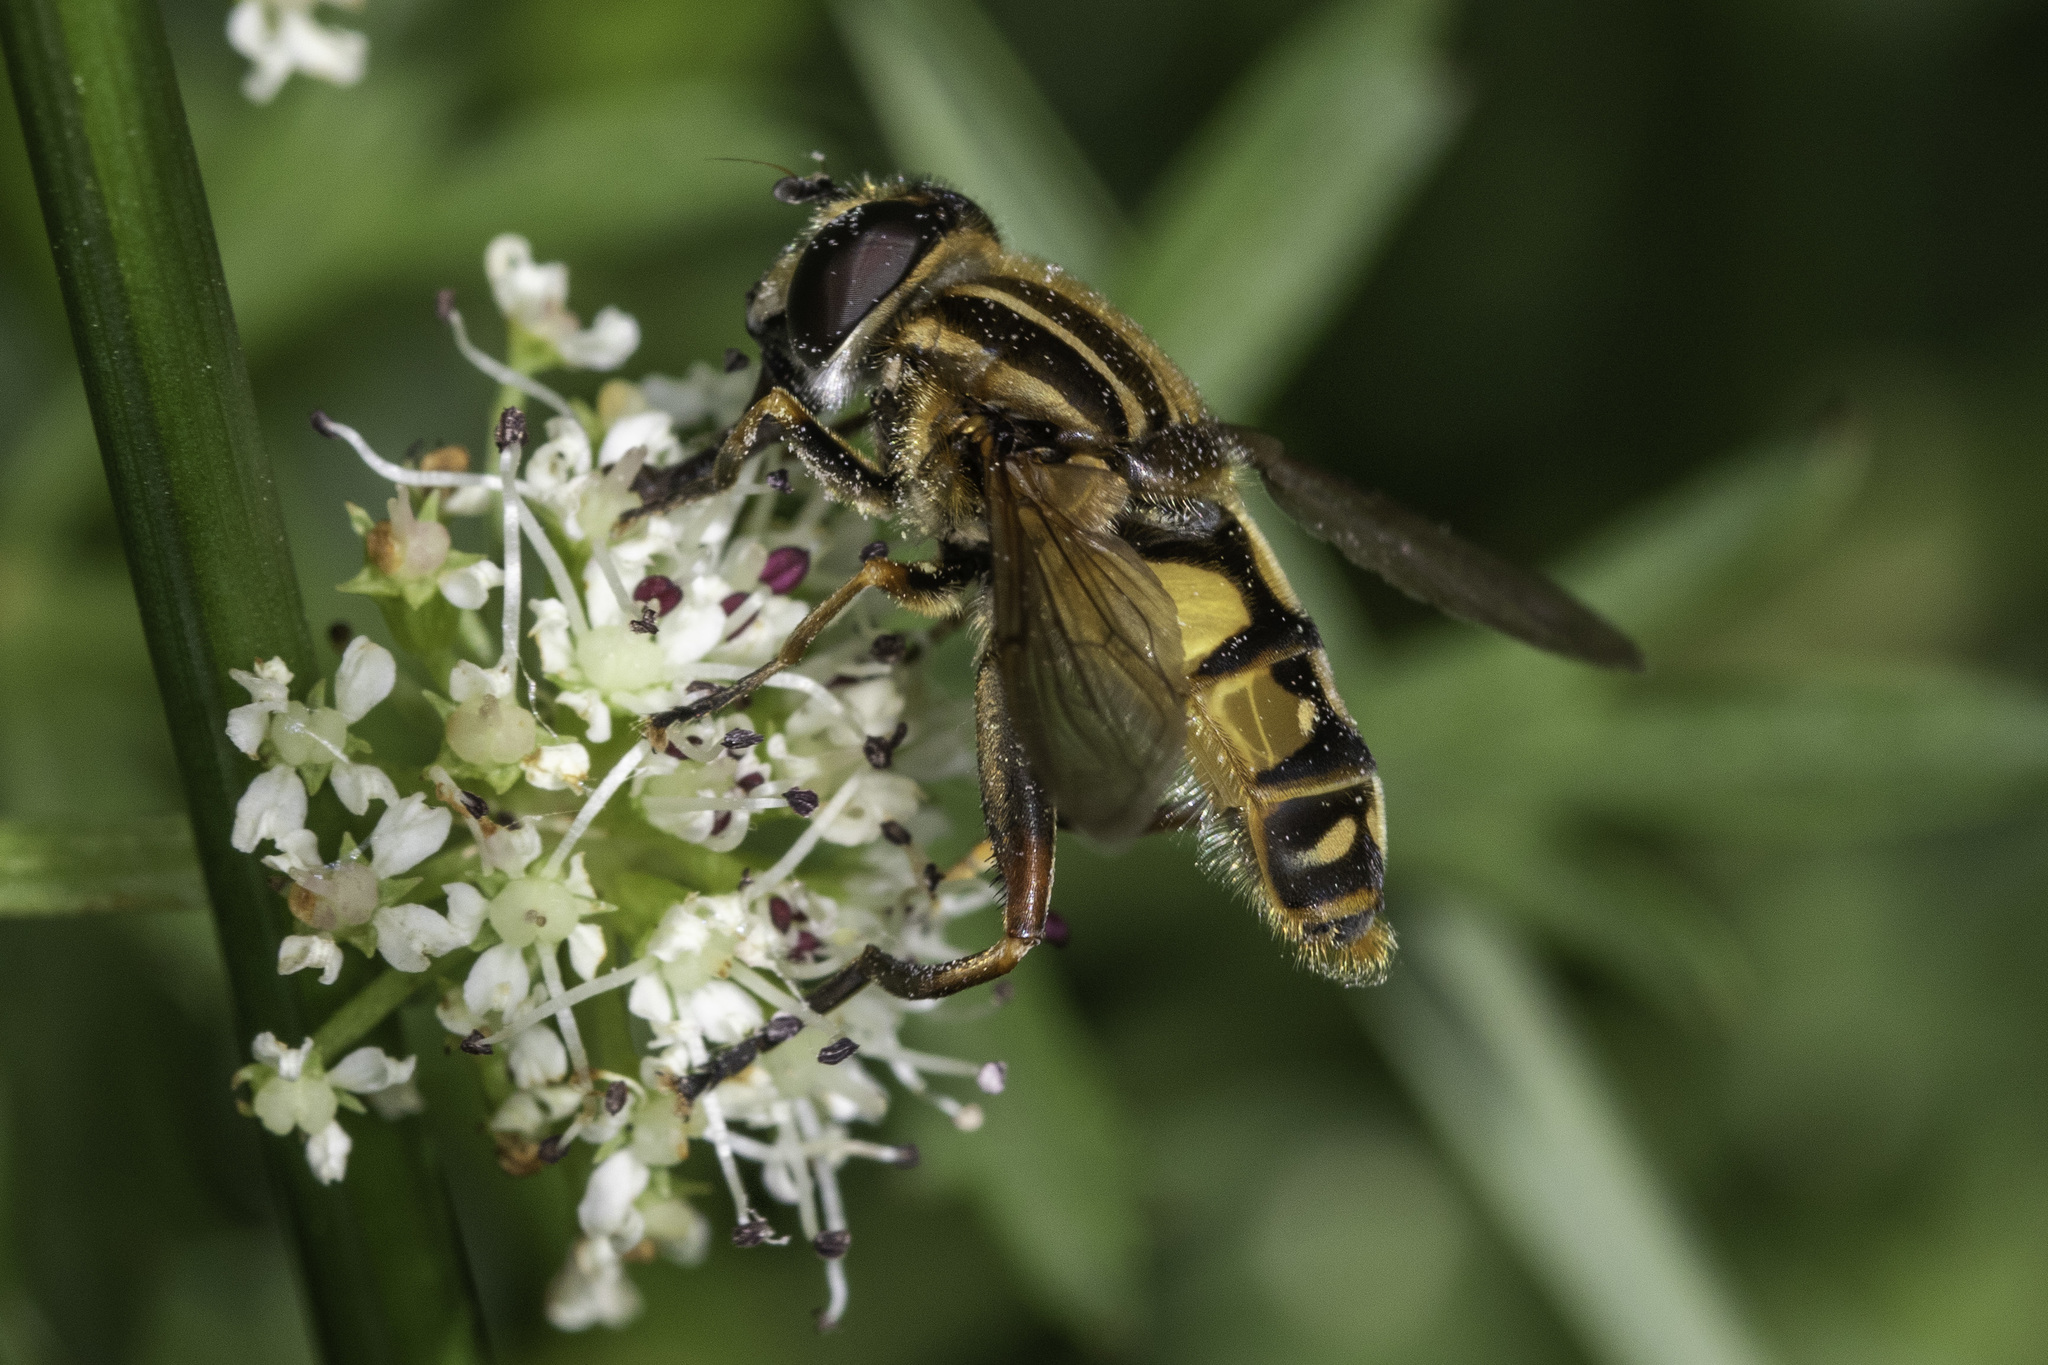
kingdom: Animalia
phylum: Arthropoda
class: Insecta
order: Diptera
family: Syrphidae
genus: Helophilus
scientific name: Helophilus pendulus
